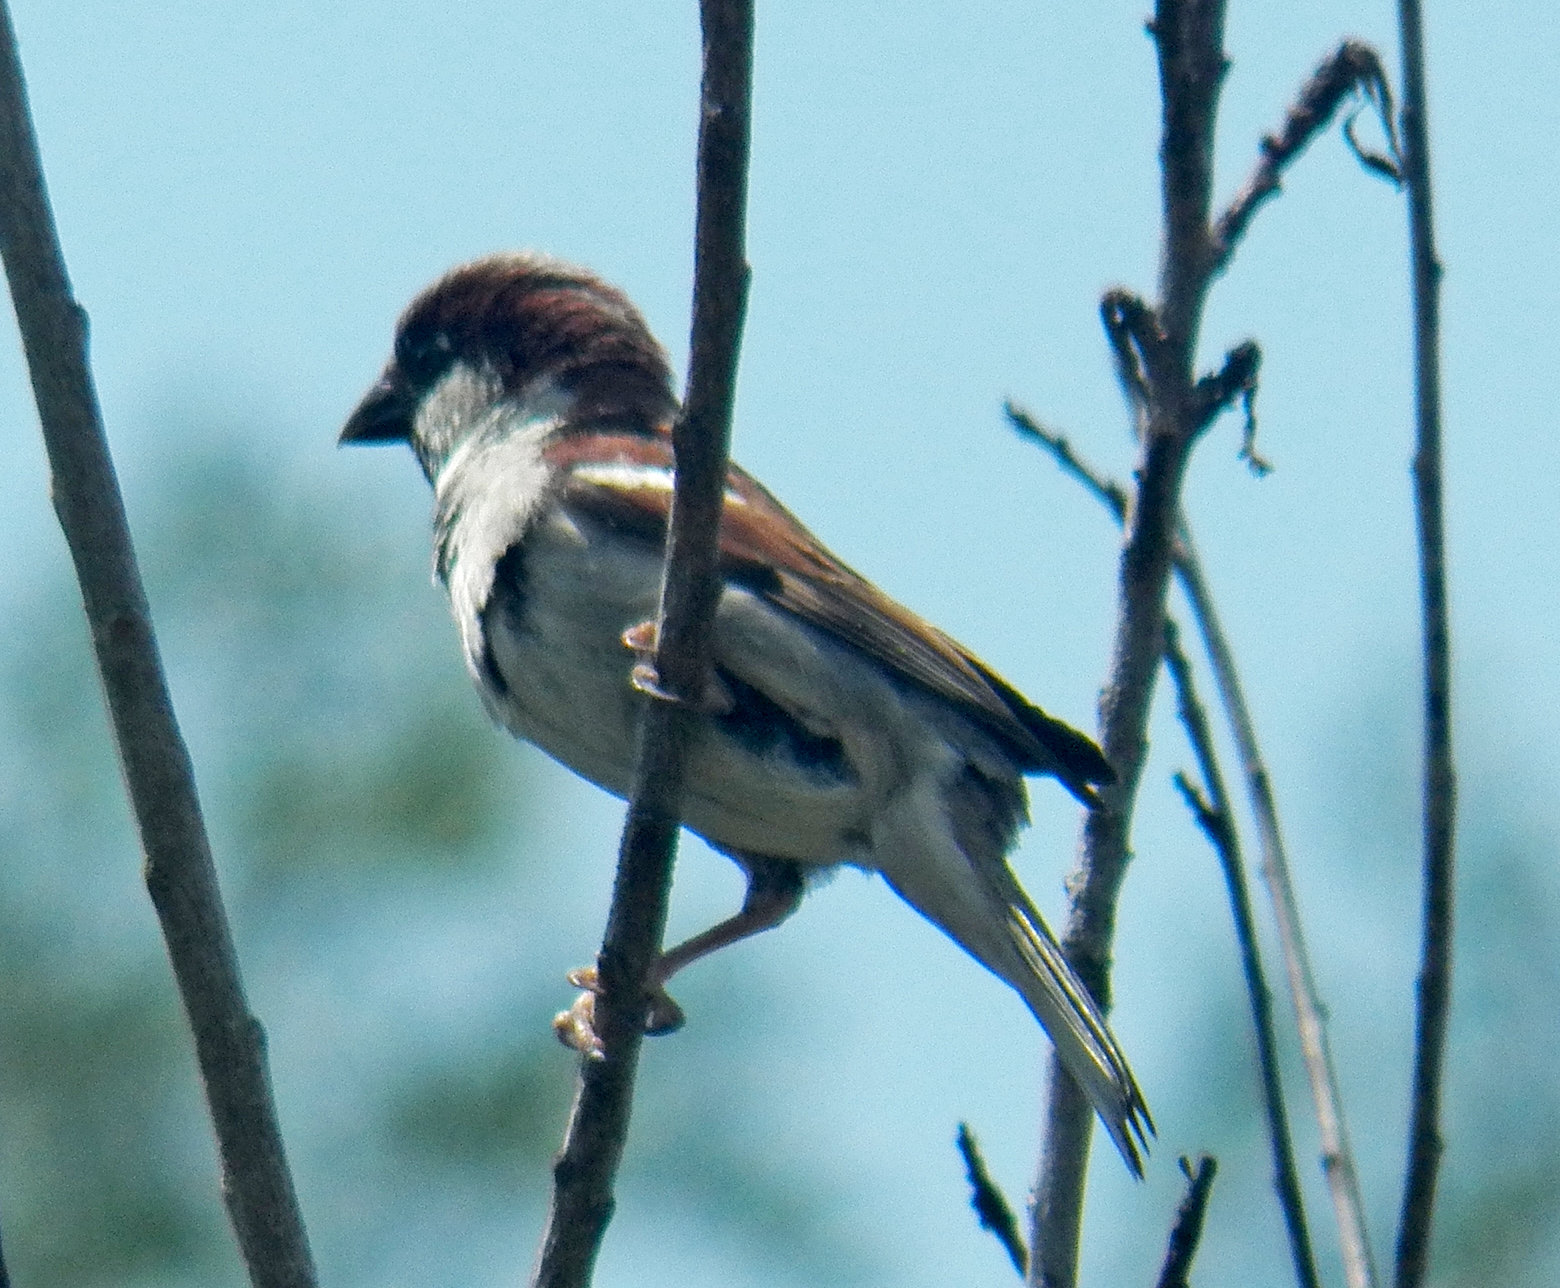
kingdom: Animalia
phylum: Chordata
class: Aves
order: Passeriformes
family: Passeridae
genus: Passer
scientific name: Passer domesticus
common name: House sparrow
